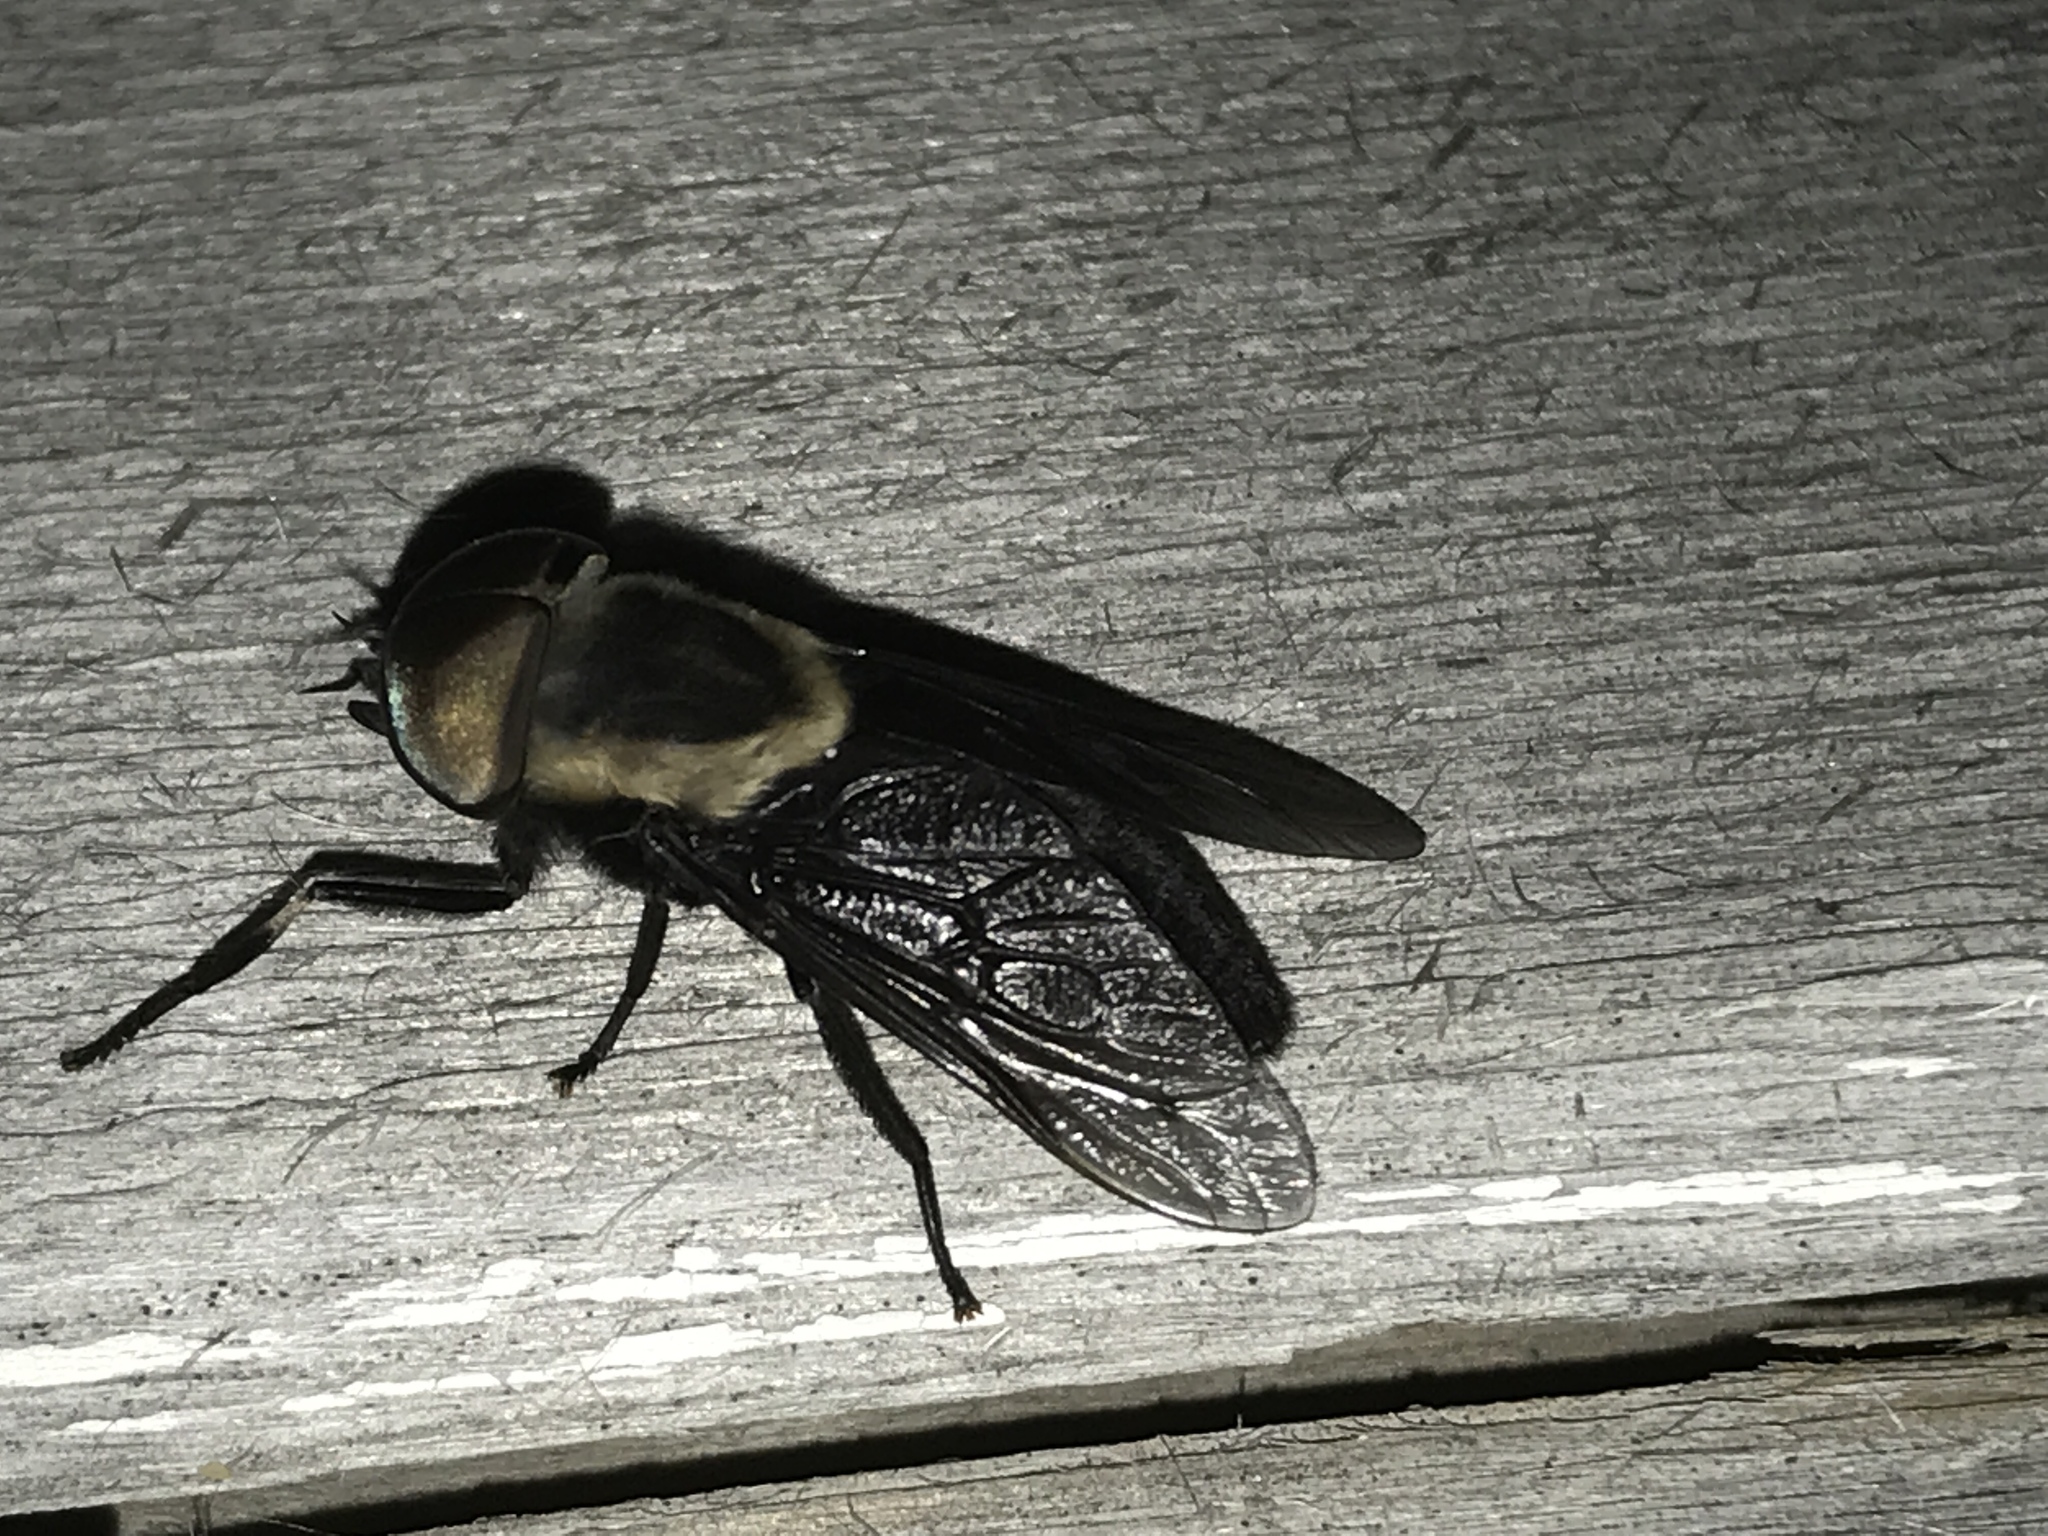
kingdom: Animalia
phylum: Arthropoda
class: Insecta
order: Diptera
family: Tabanidae
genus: Tabanus
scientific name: Tabanus punctifer
